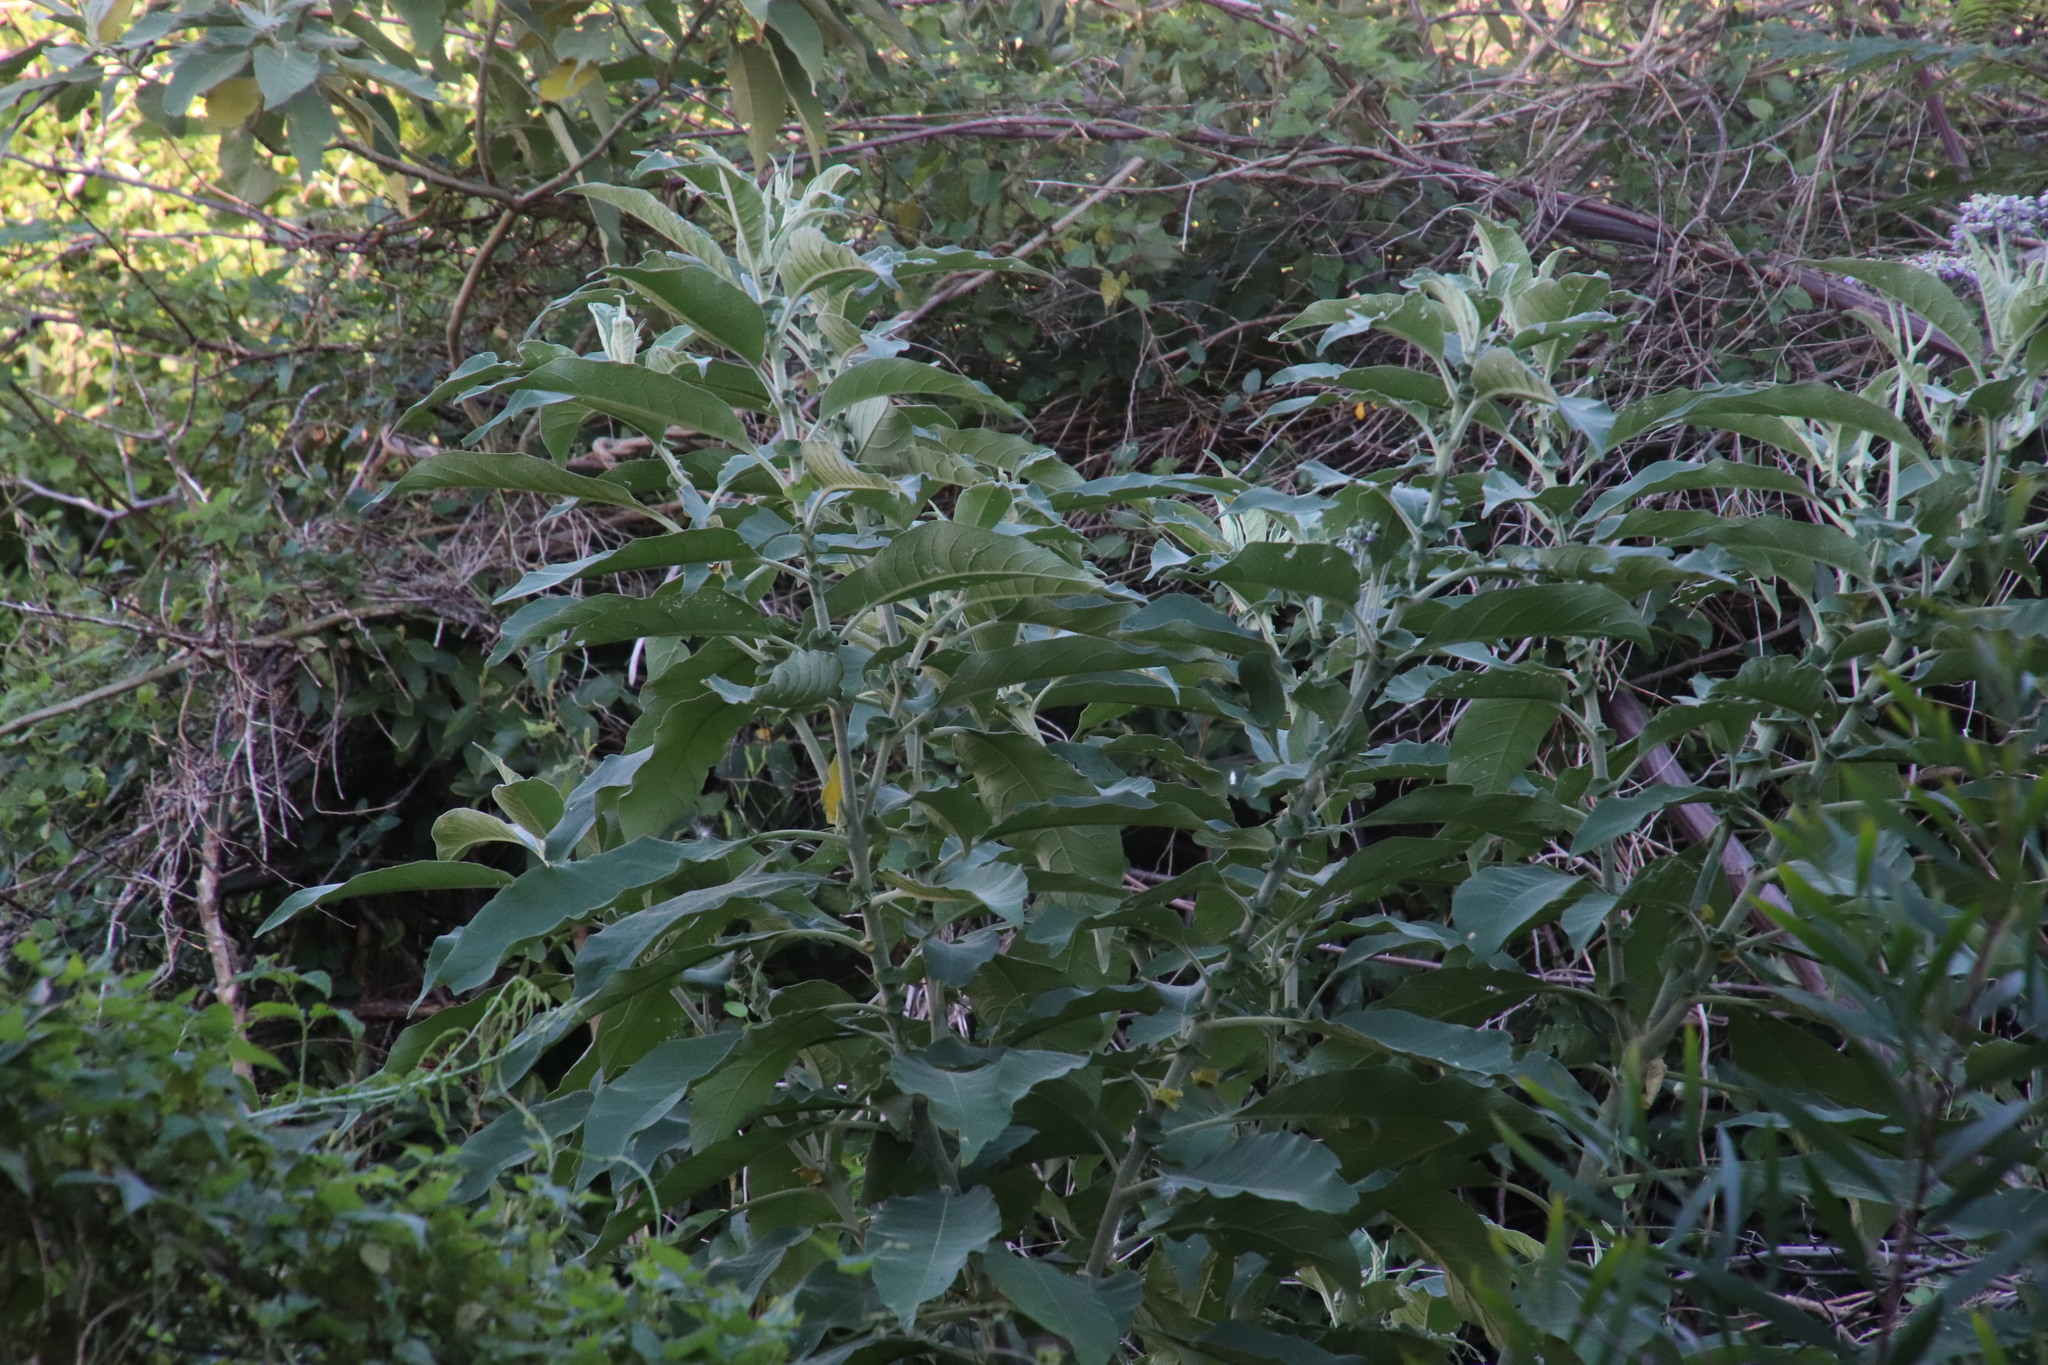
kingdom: Plantae
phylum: Tracheophyta
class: Magnoliopsida
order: Dipsacales
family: Caprifoliaceae
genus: Centranthus
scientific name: Centranthus ruber
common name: Red valerian
